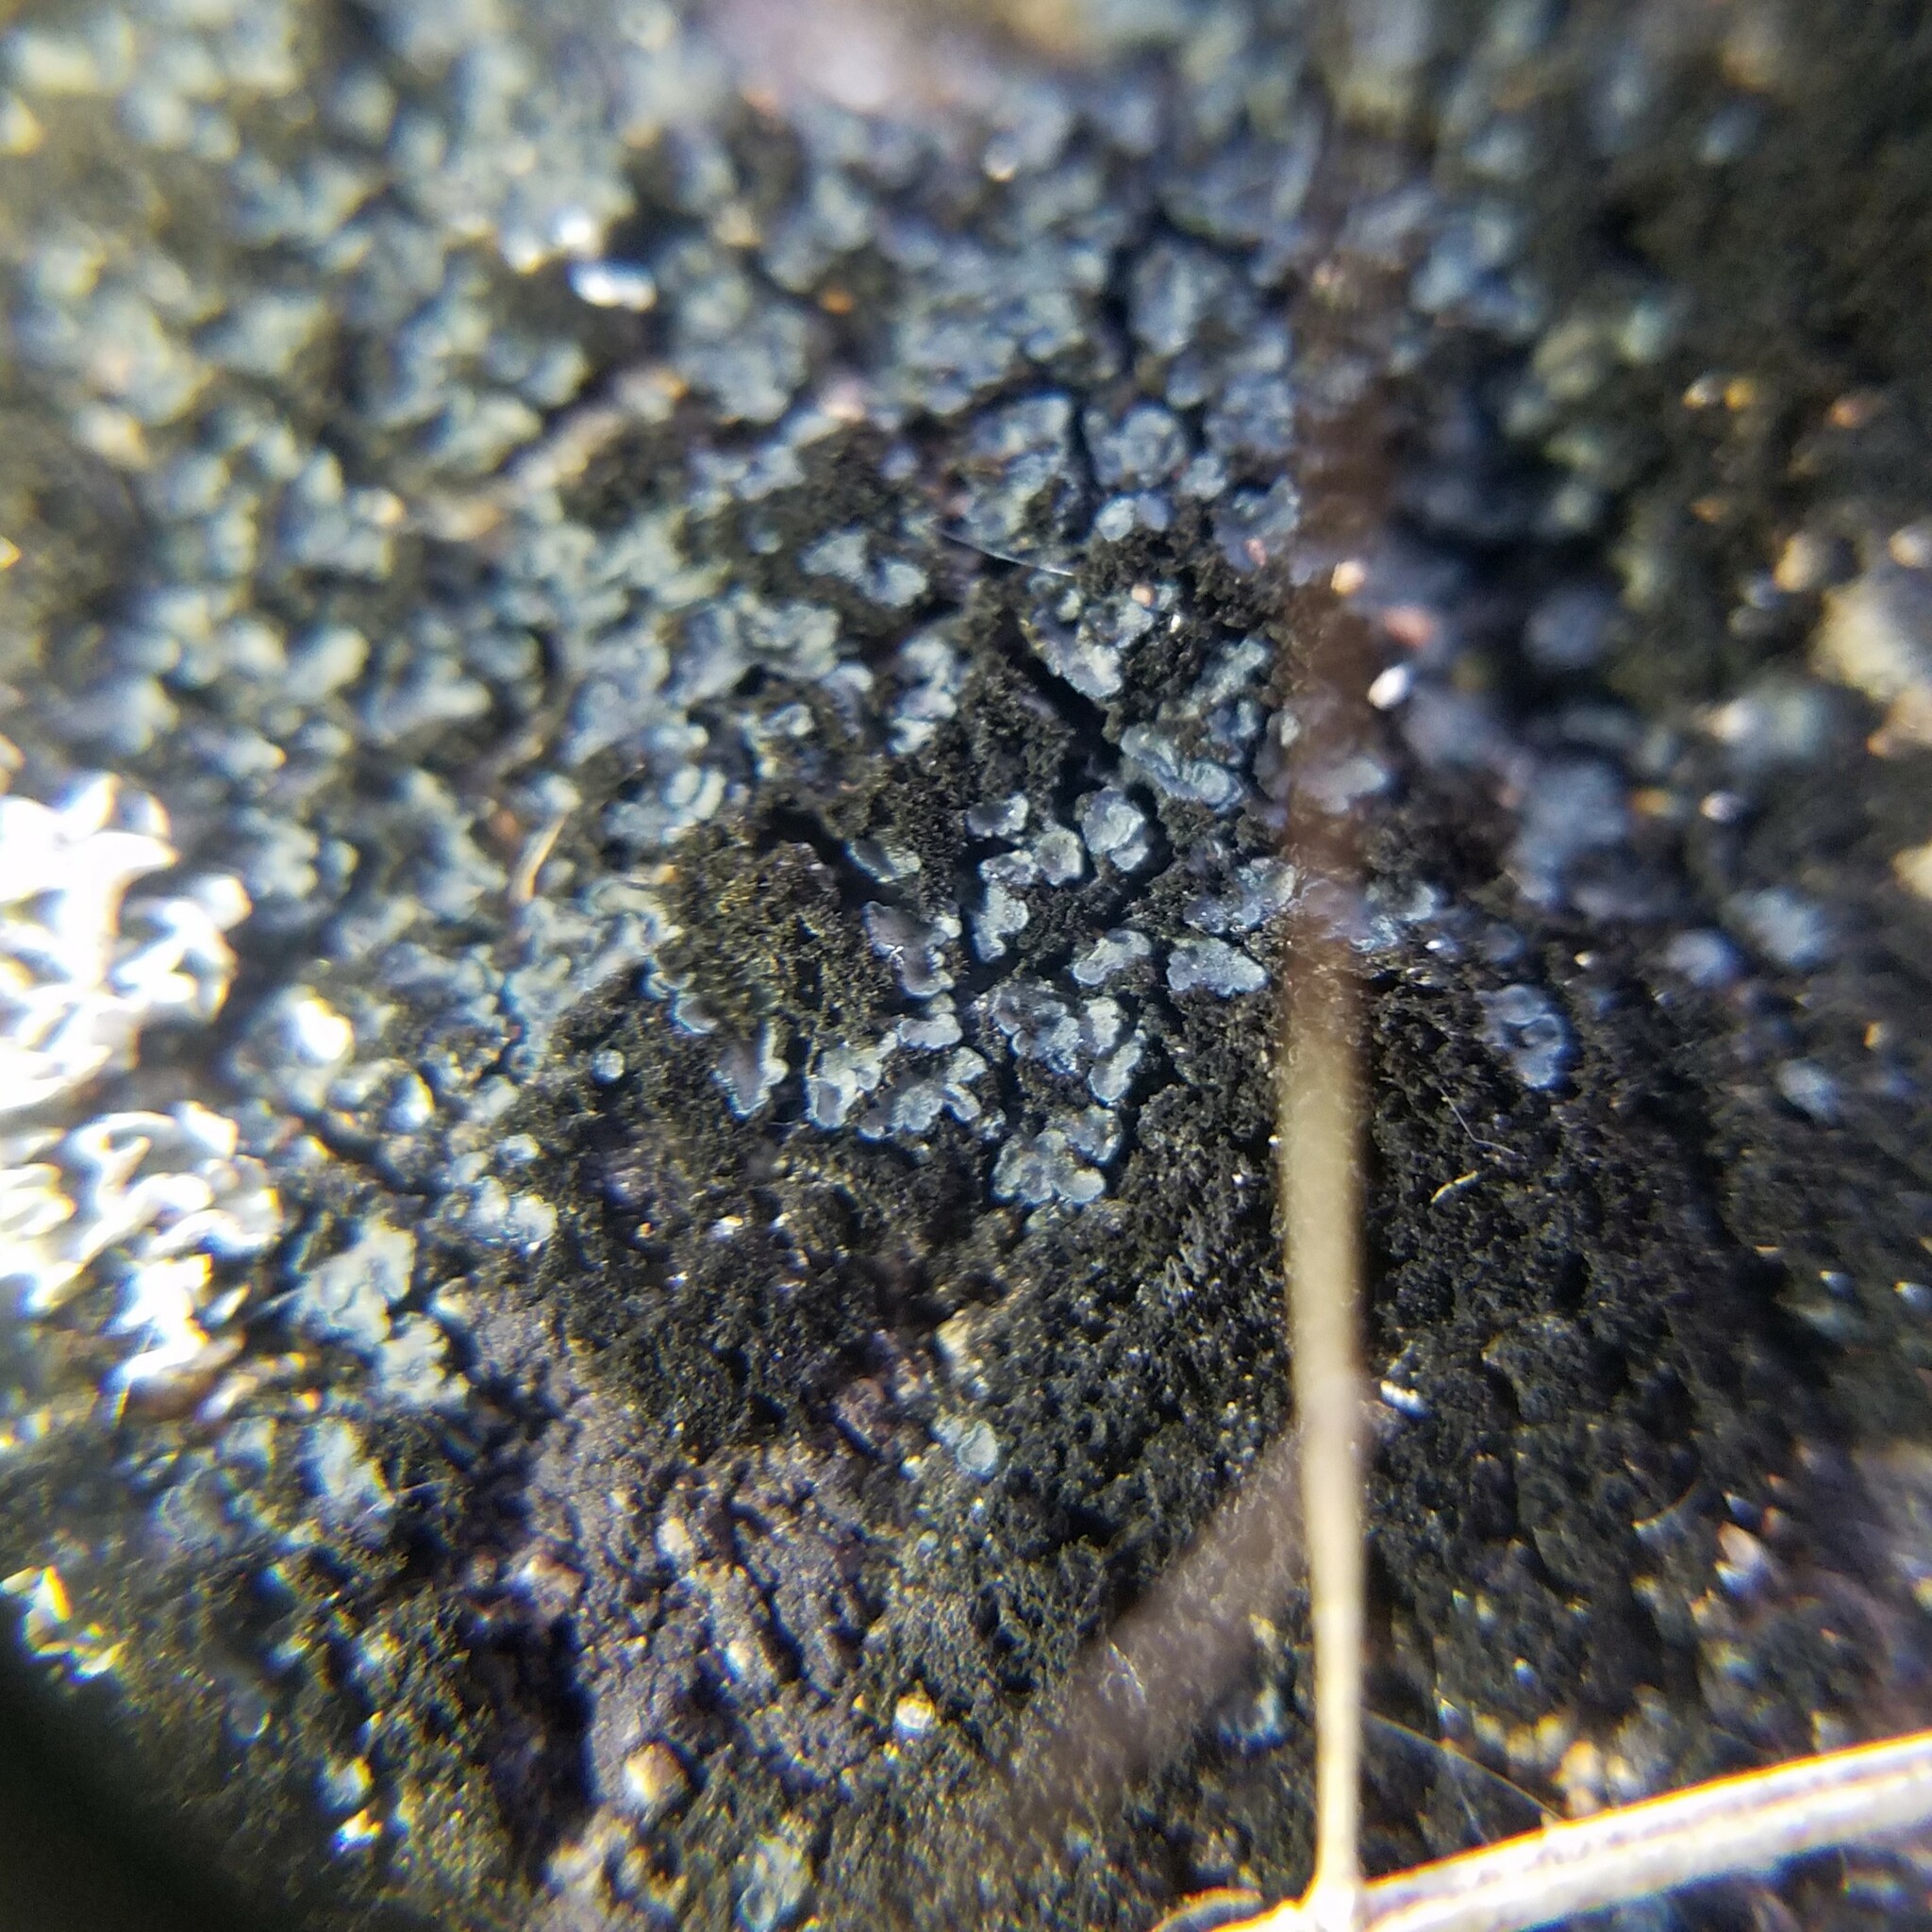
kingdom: Fungi
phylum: Ascomycota
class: Lecanoromycetes
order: Peltigerales
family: Coccocarpiaceae
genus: Spilonema
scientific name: Spilonema revertens
